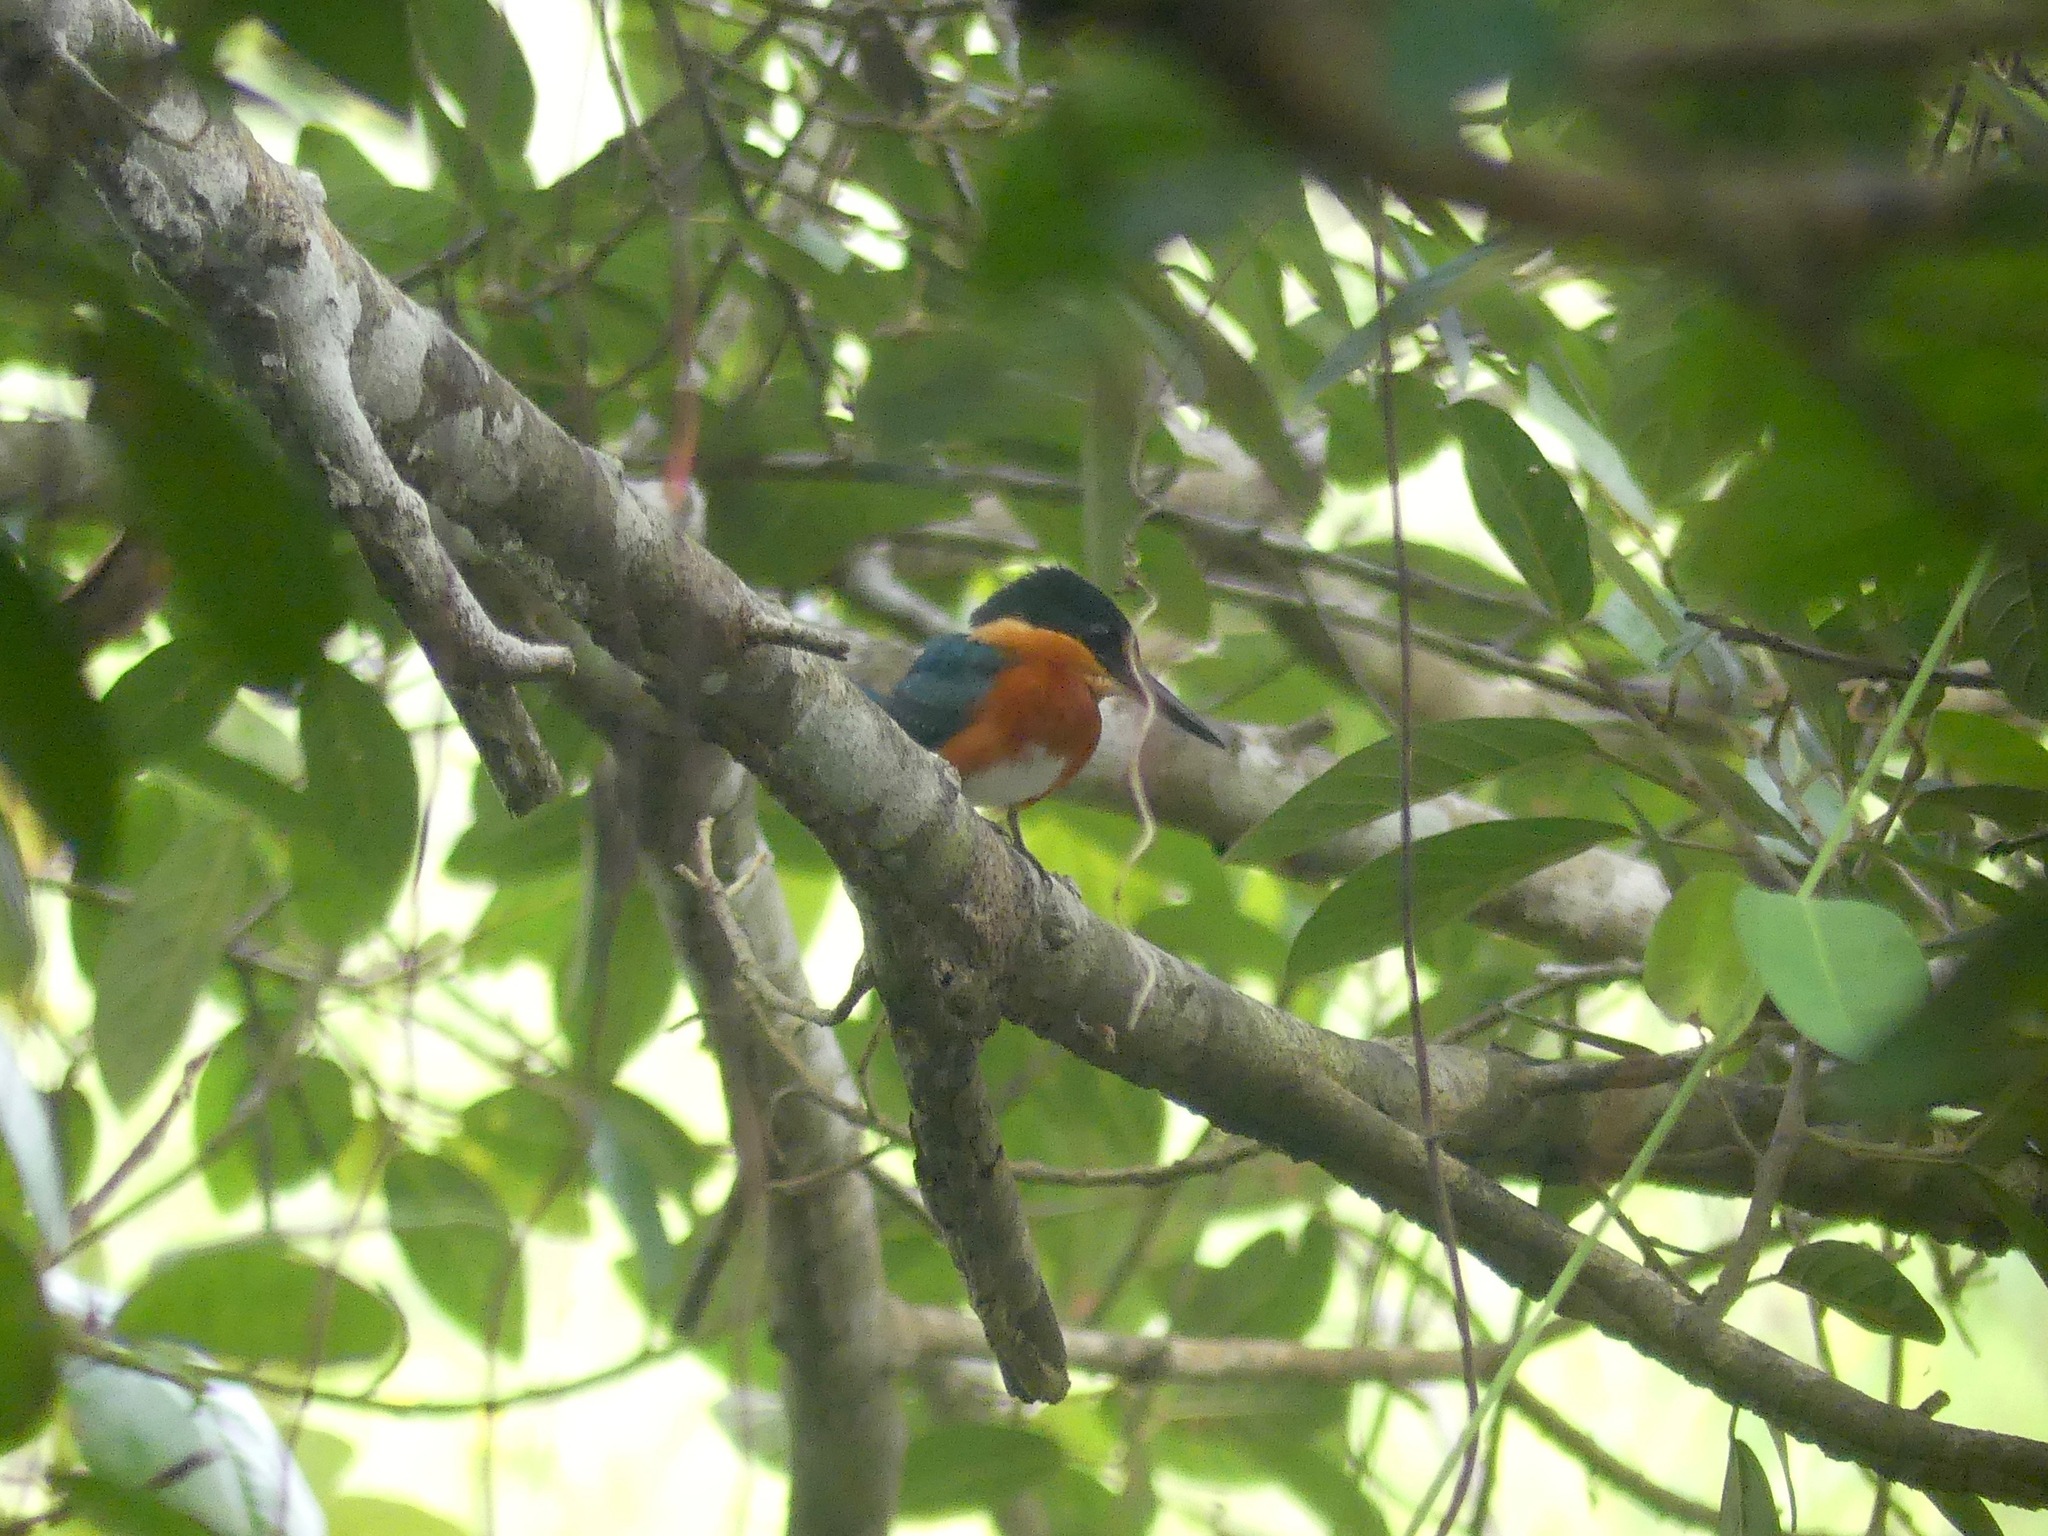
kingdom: Animalia
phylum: Chordata
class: Aves
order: Coraciiformes
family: Alcedinidae
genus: Chloroceryle
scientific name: Chloroceryle aenea
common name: American pygmy kingfisher
